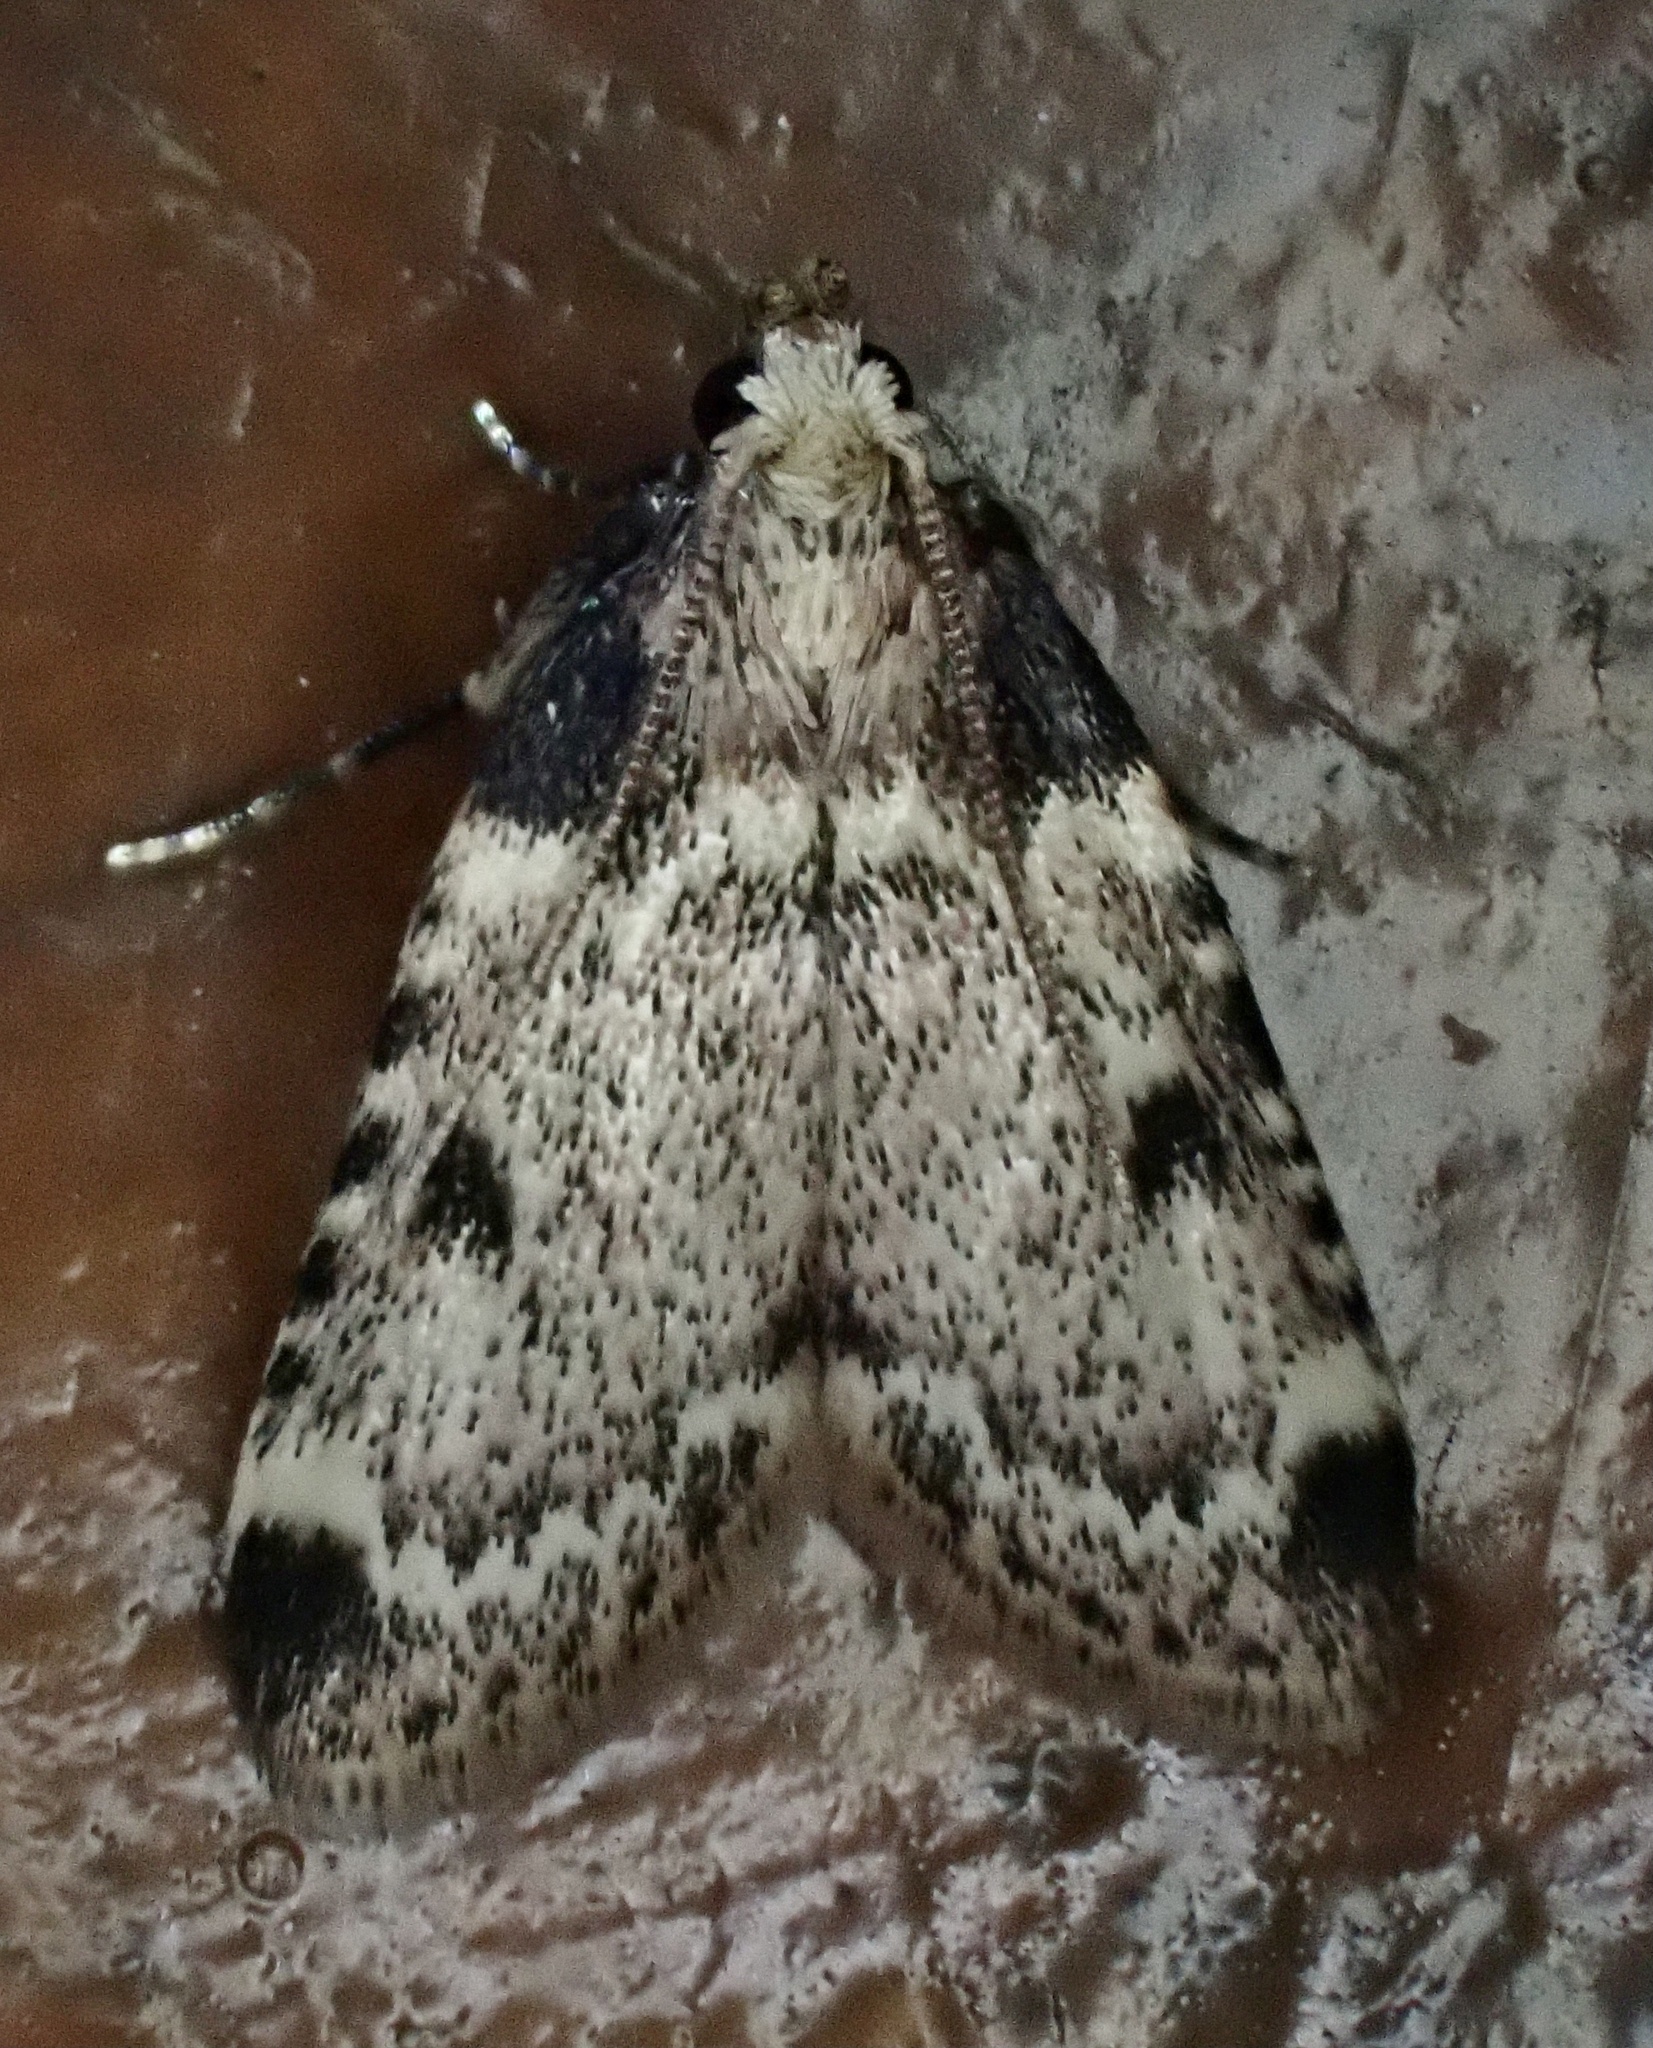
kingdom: Animalia
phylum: Arthropoda
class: Insecta
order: Lepidoptera
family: Pyralidae
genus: Aglossa
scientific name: Aglossa costiferalis
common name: Calico pyralid moth
